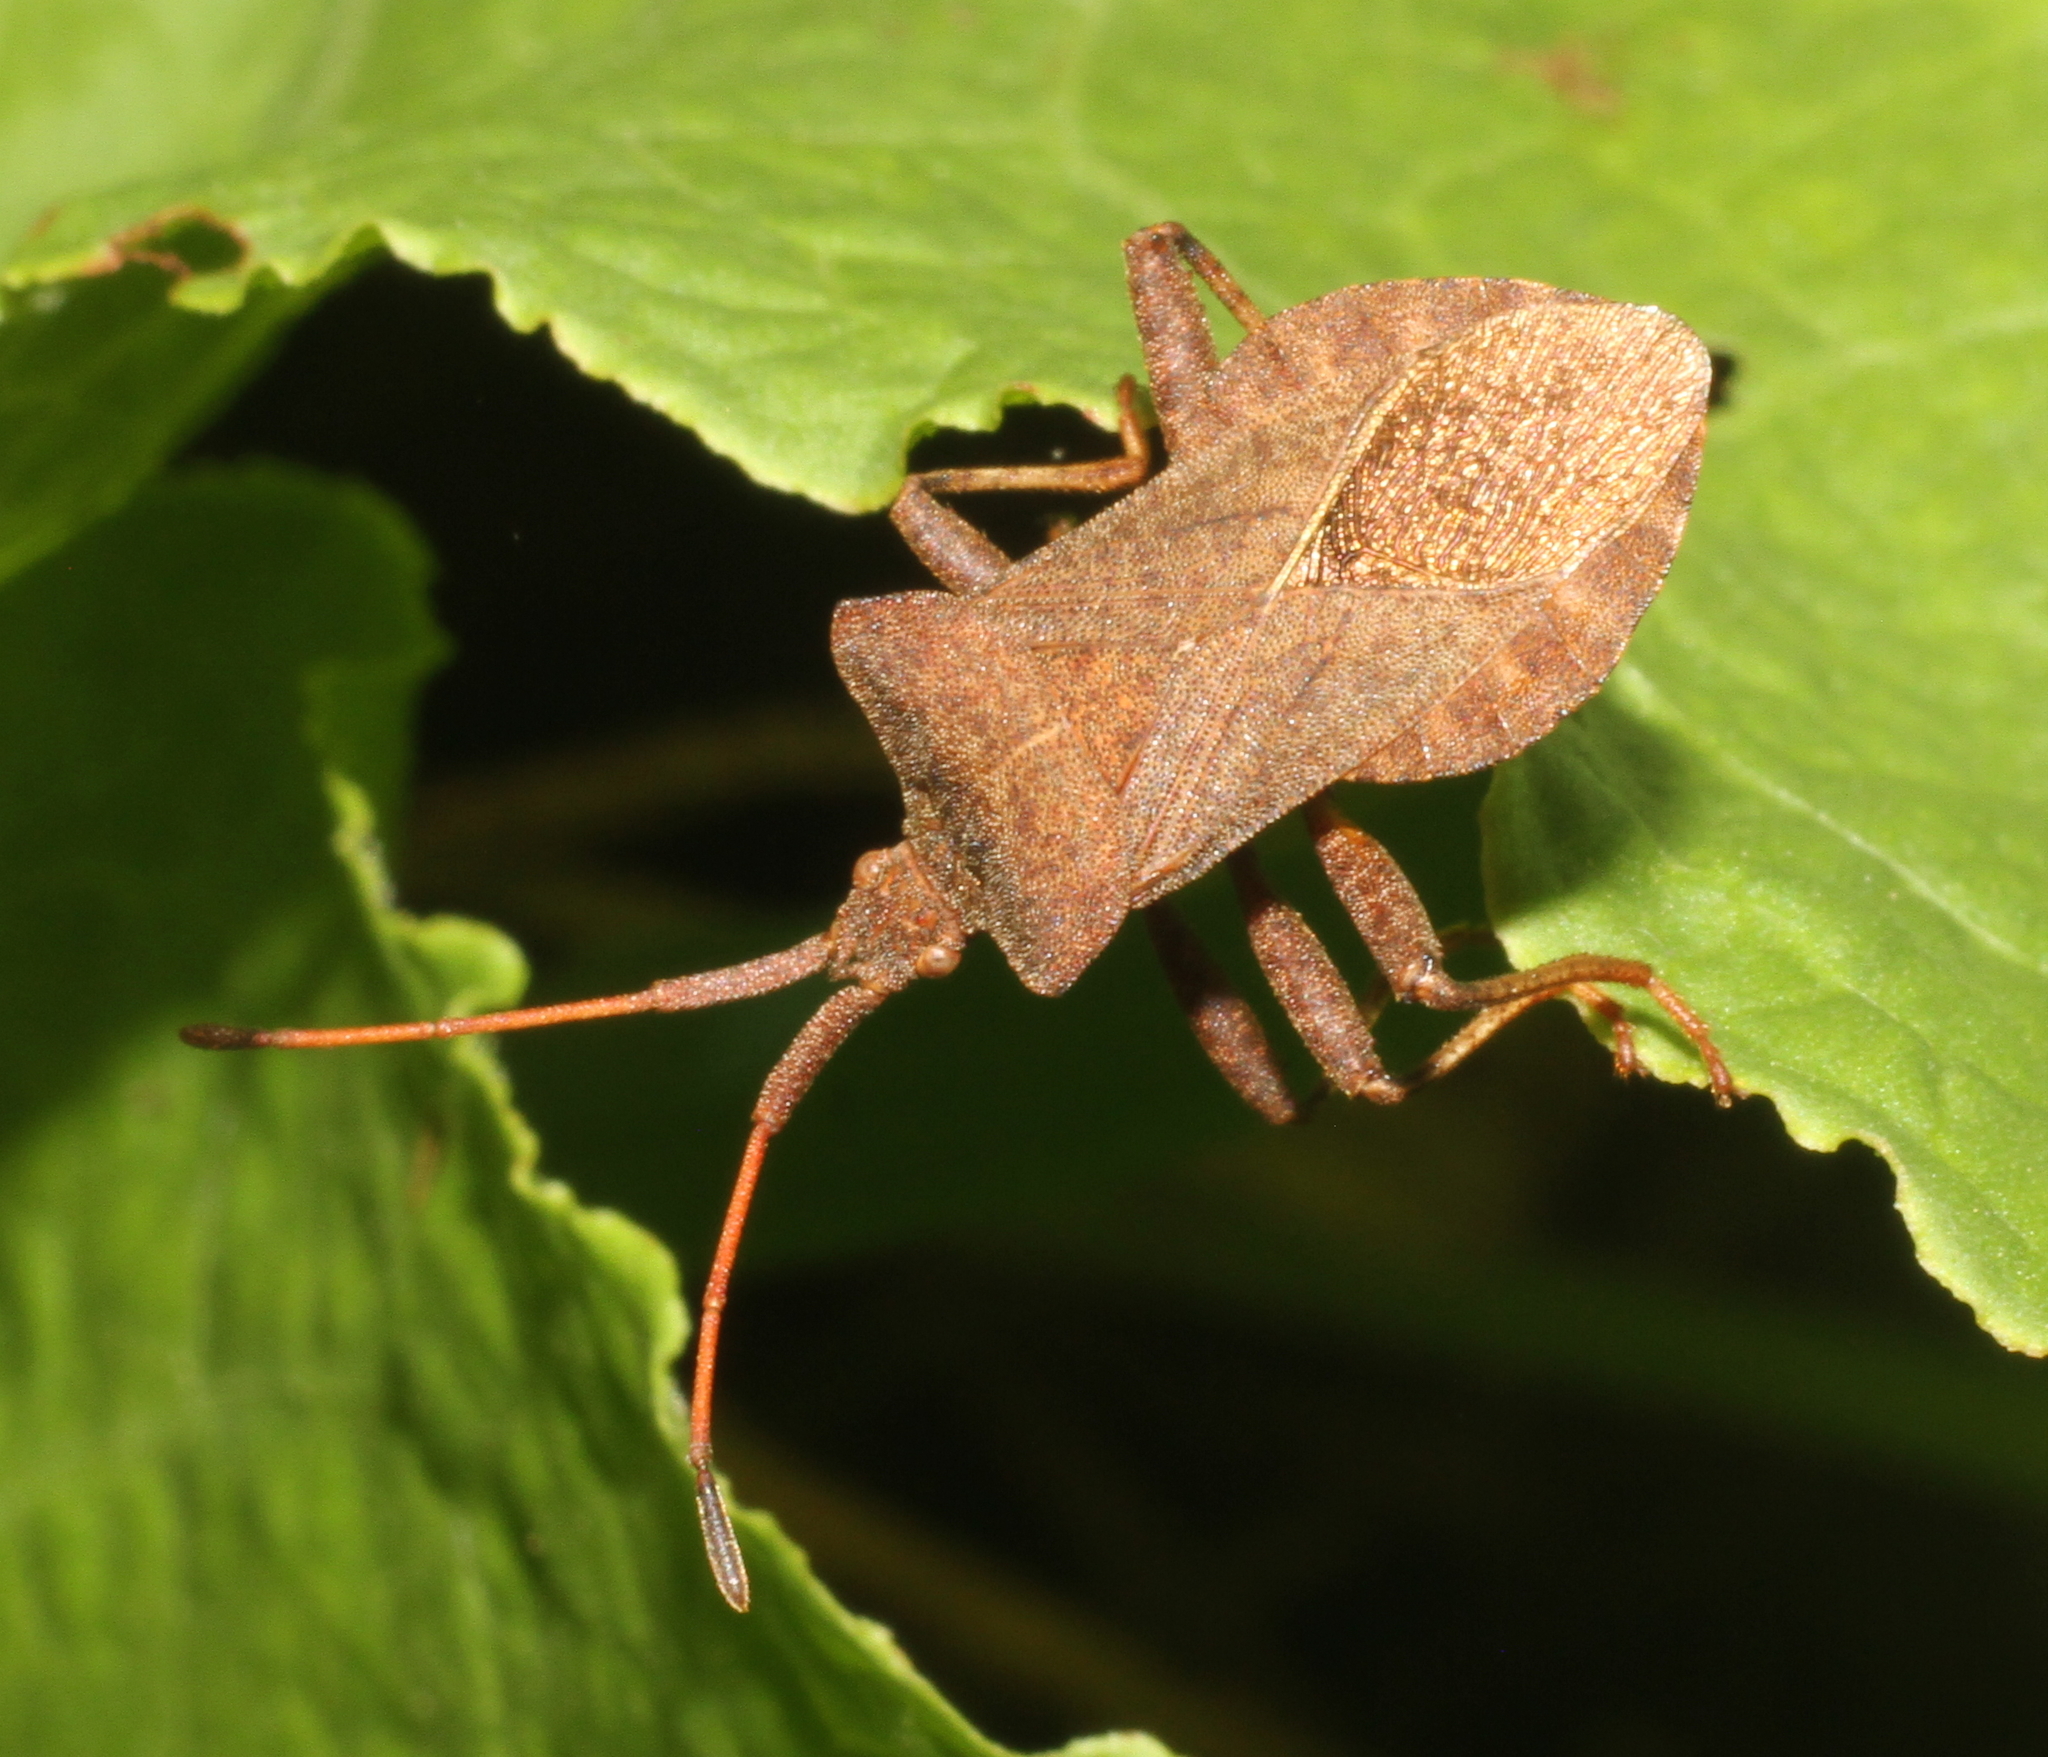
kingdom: Animalia
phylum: Arthropoda
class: Insecta
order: Hemiptera
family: Coreidae
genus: Coreus
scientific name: Coreus marginatus
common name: Dock bug
